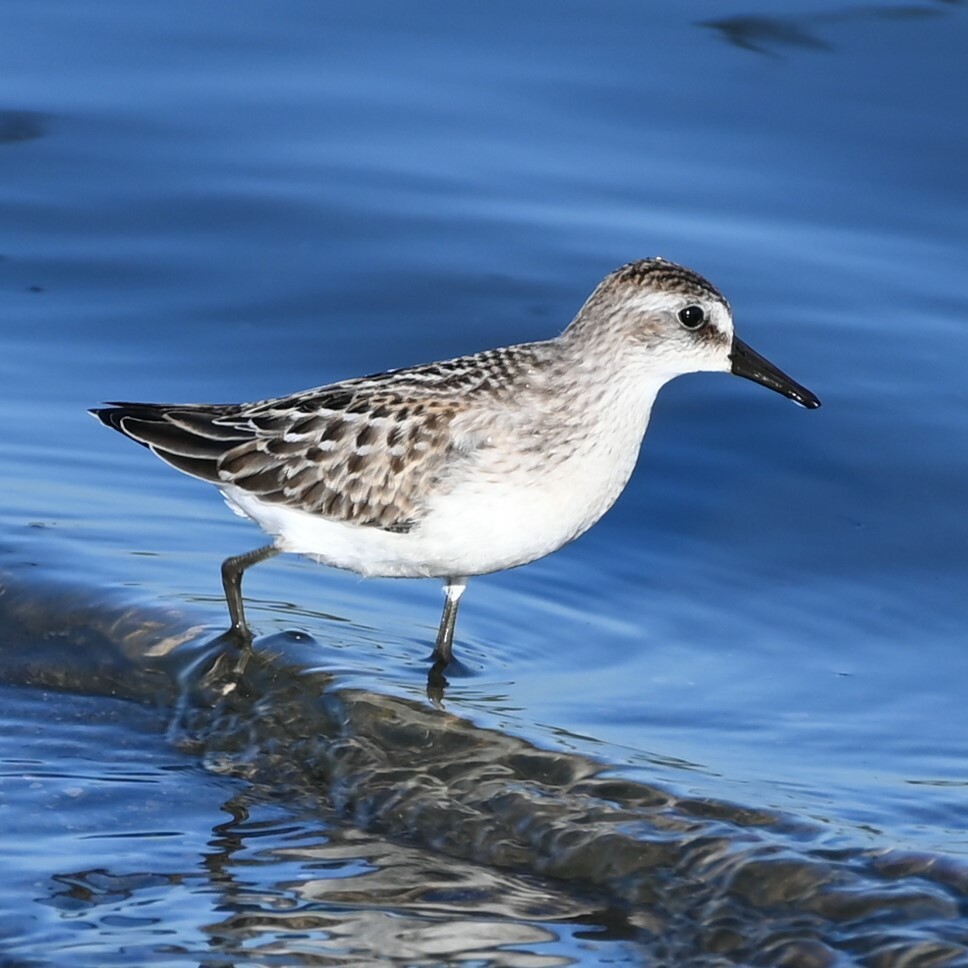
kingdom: Animalia
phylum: Chordata
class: Aves
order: Charadriiformes
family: Scolopacidae
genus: Calidris
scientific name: Calidris pusilla
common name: Semipalmated sandpiper
